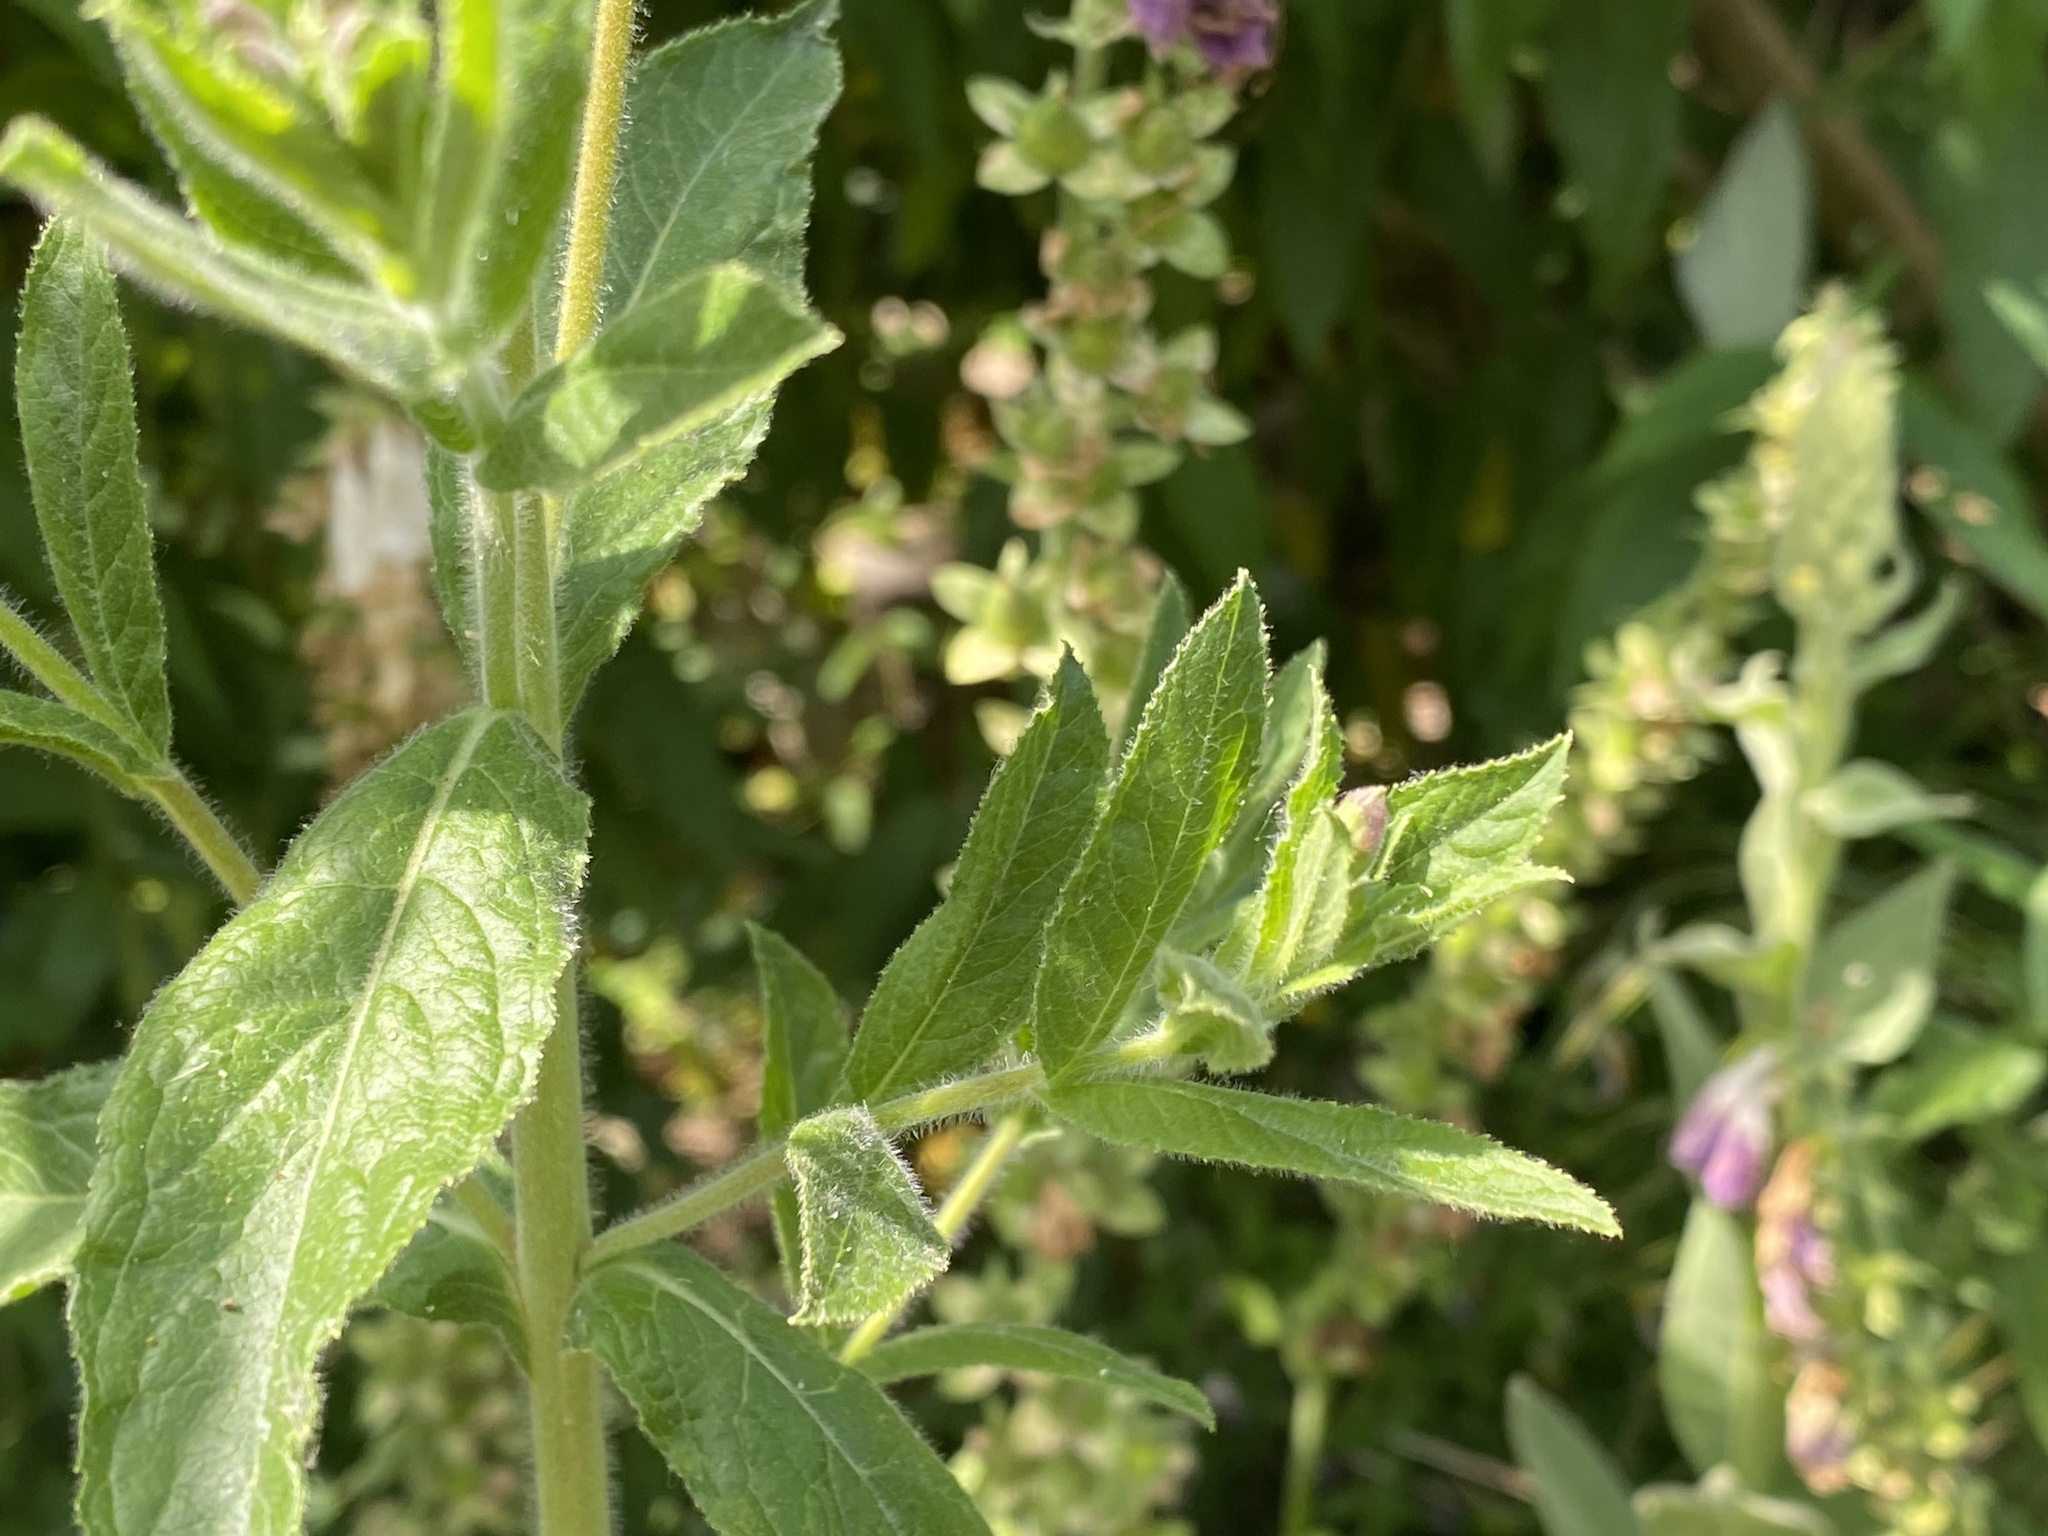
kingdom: Plantae
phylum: Tracheophyta
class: Magnoliopsida
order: Myrtales
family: Onagraceae
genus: Epilobium
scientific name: Epilobium hirsutum
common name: Great willowherb
